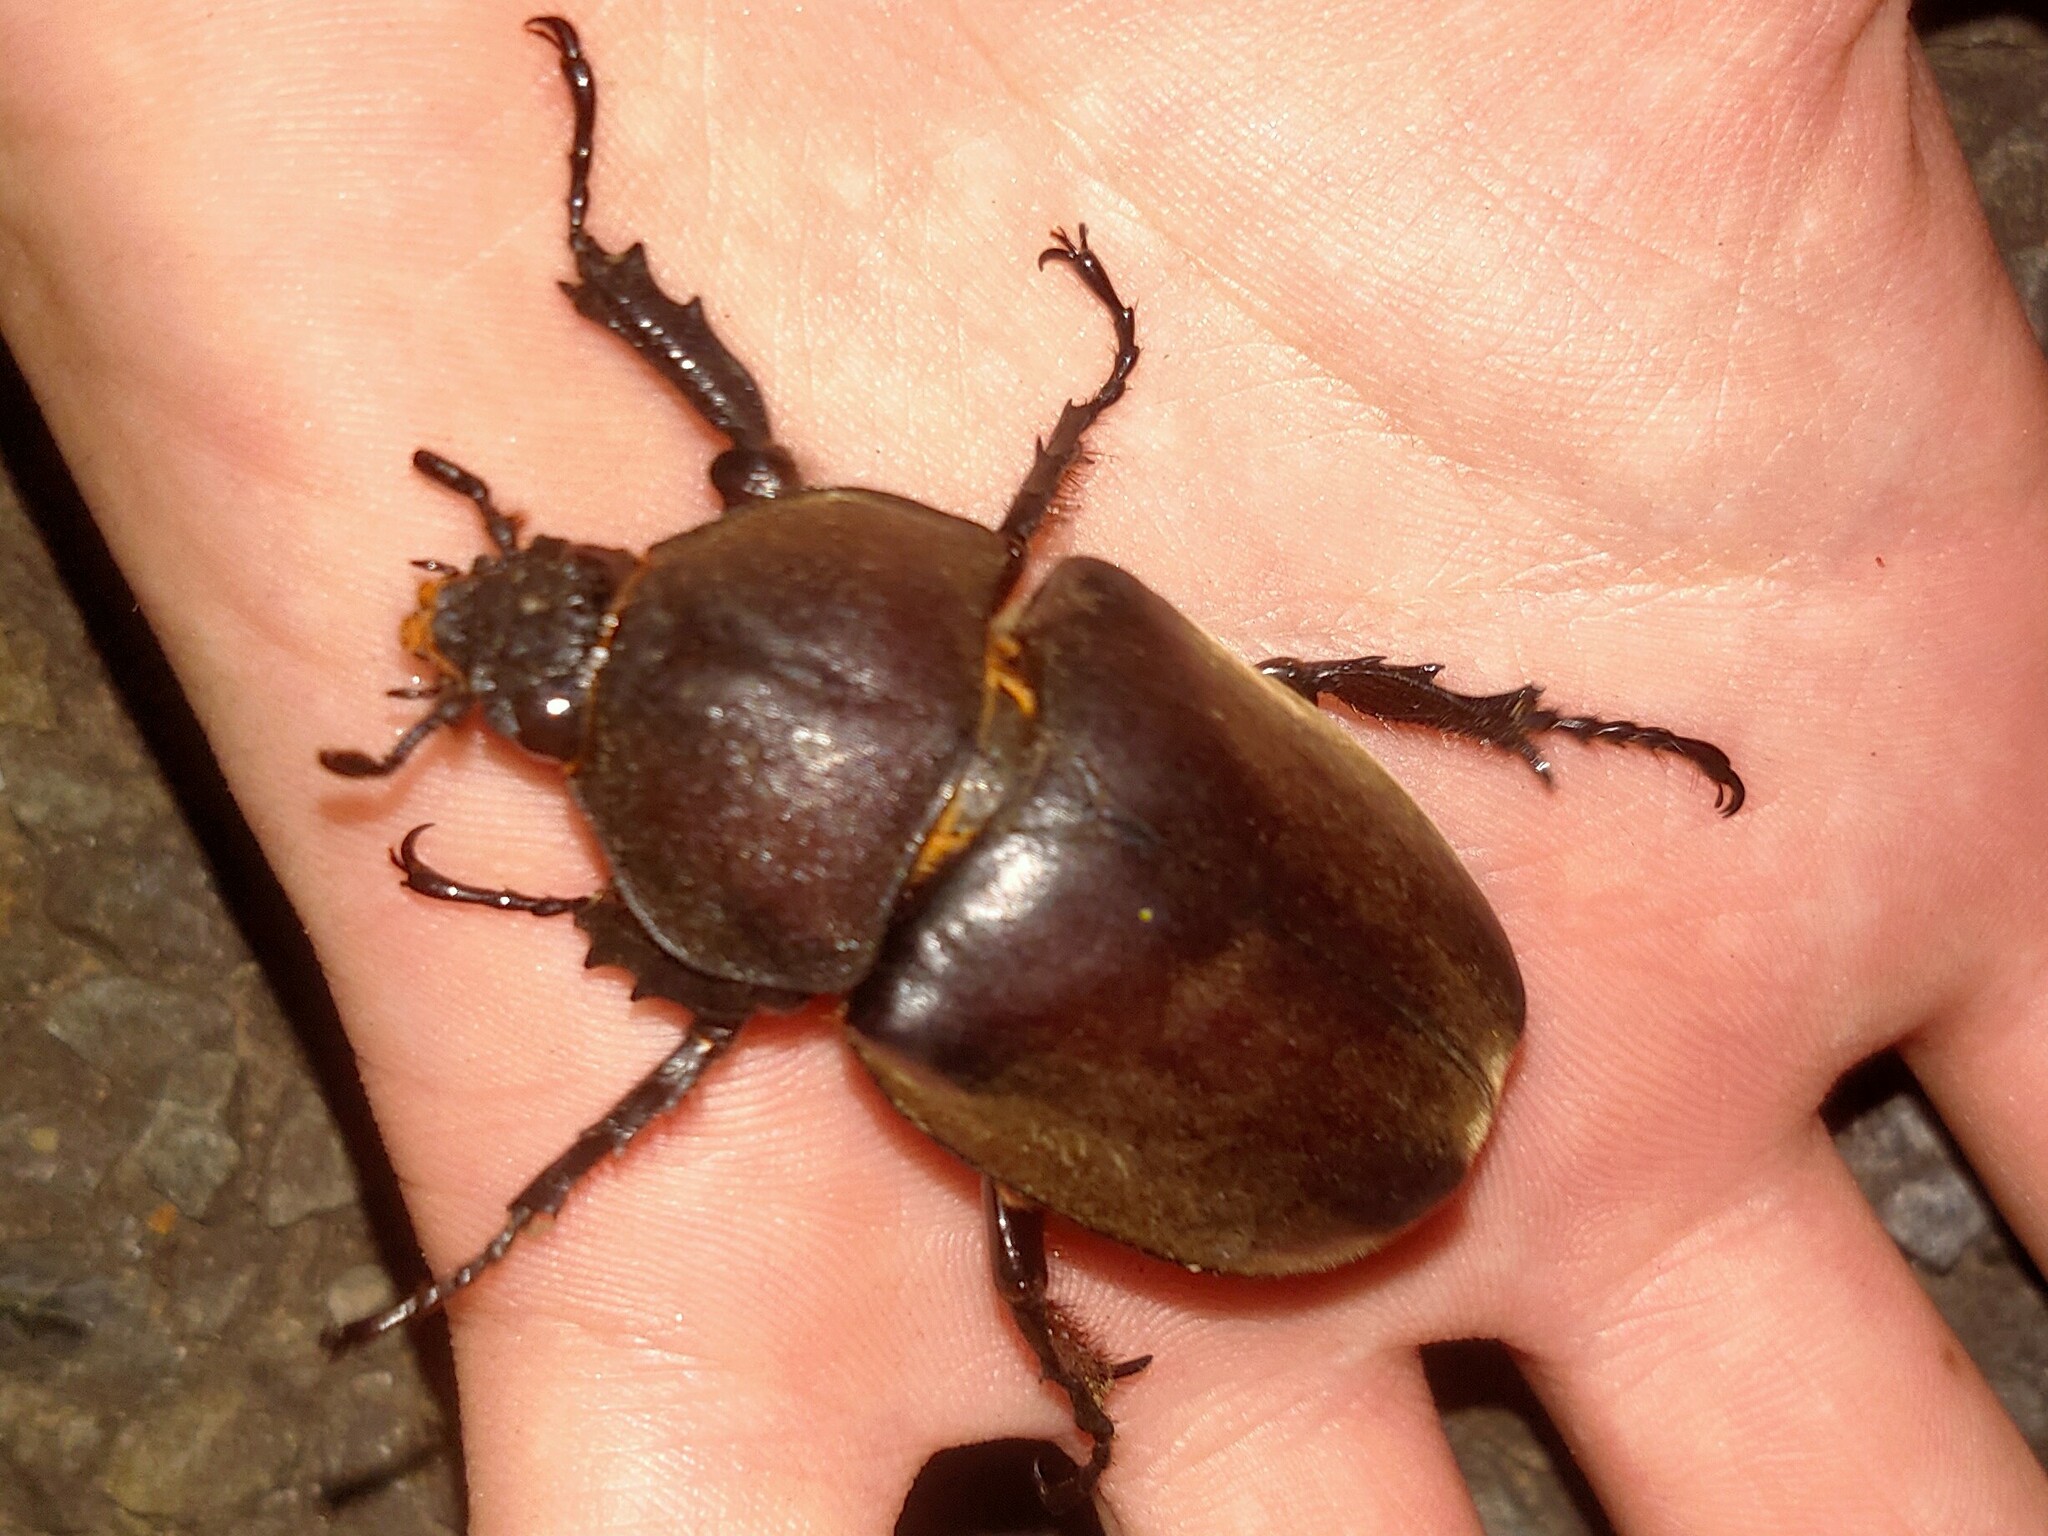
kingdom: Animalia
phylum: Arthropoda
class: Insecta
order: Coleoptera
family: Scarabaeidae
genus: Trypoxylus
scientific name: Trypoxylus dichotomus
